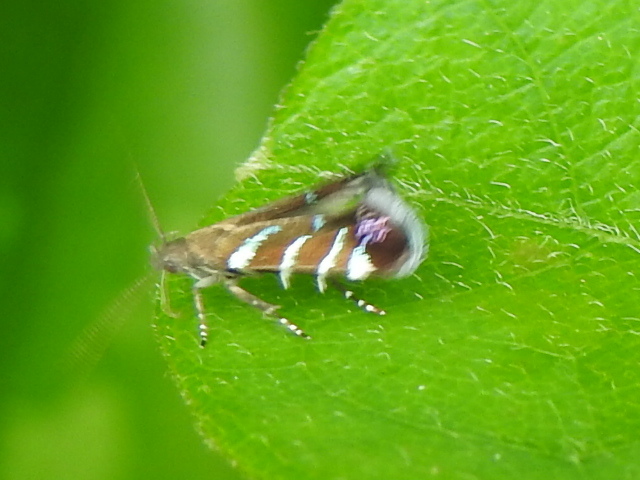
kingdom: Animalia
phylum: Arthropoda
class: Insecta
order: Lepidoptera
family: Gelechiidae
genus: Strobisia
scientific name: Strobisia proserpinella
